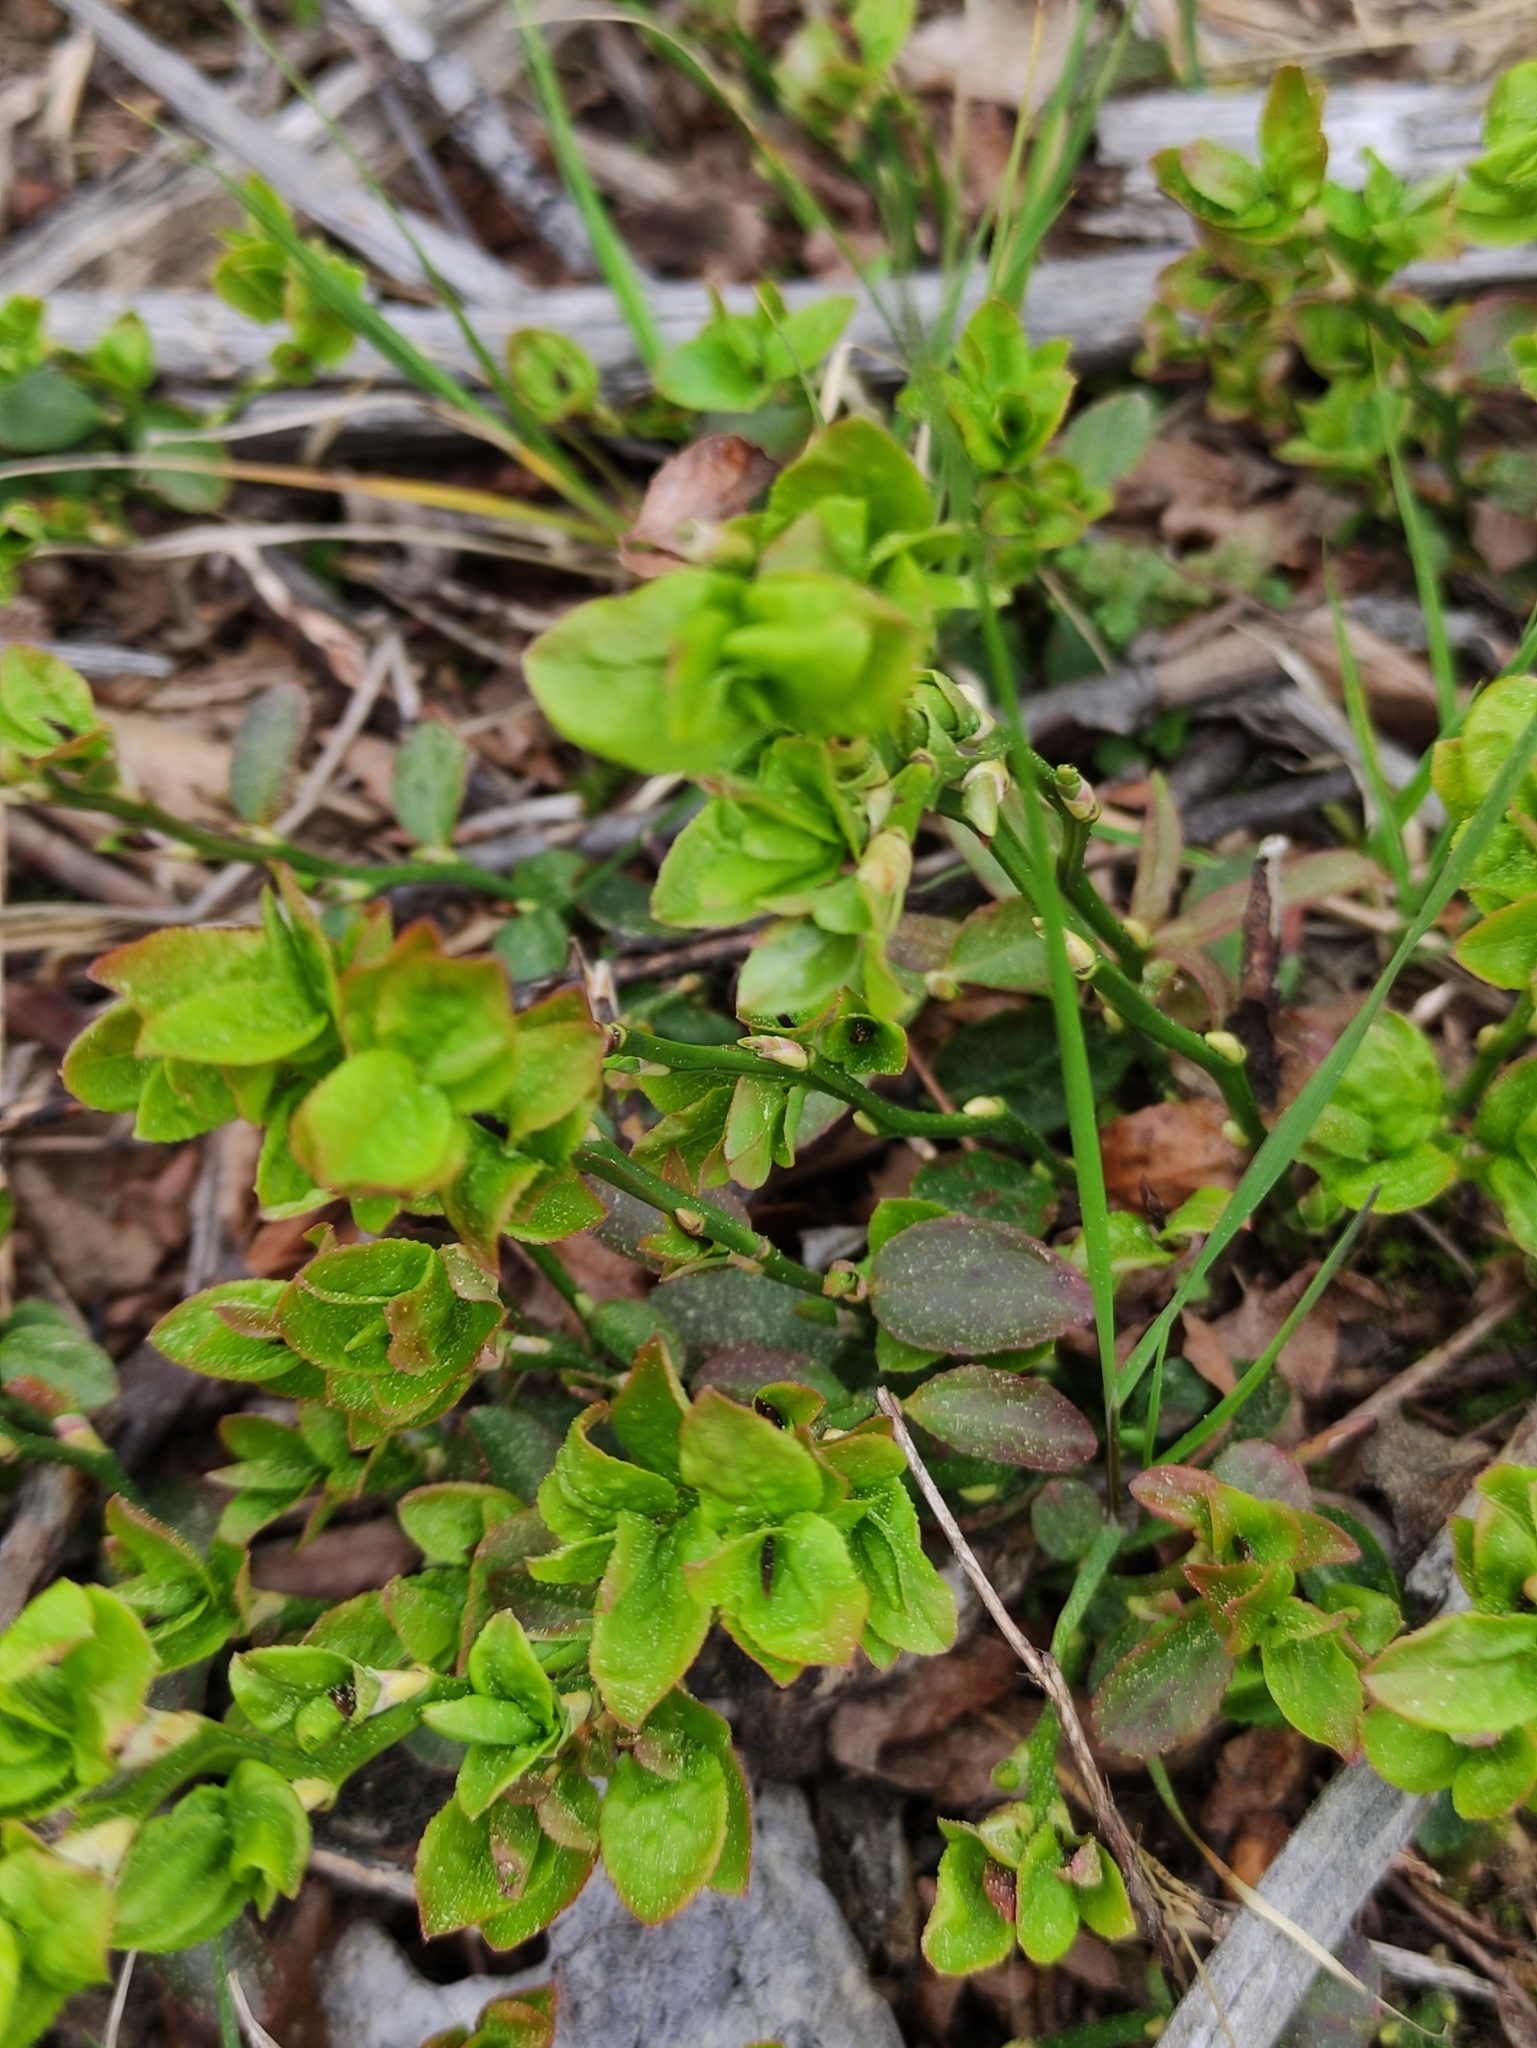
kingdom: Plantae
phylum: Tracheophyta
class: Magnoliopsida
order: Ericales
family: Ericaceae
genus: Vaccinium
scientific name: Vaccinium myrtillus
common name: Bilberry
